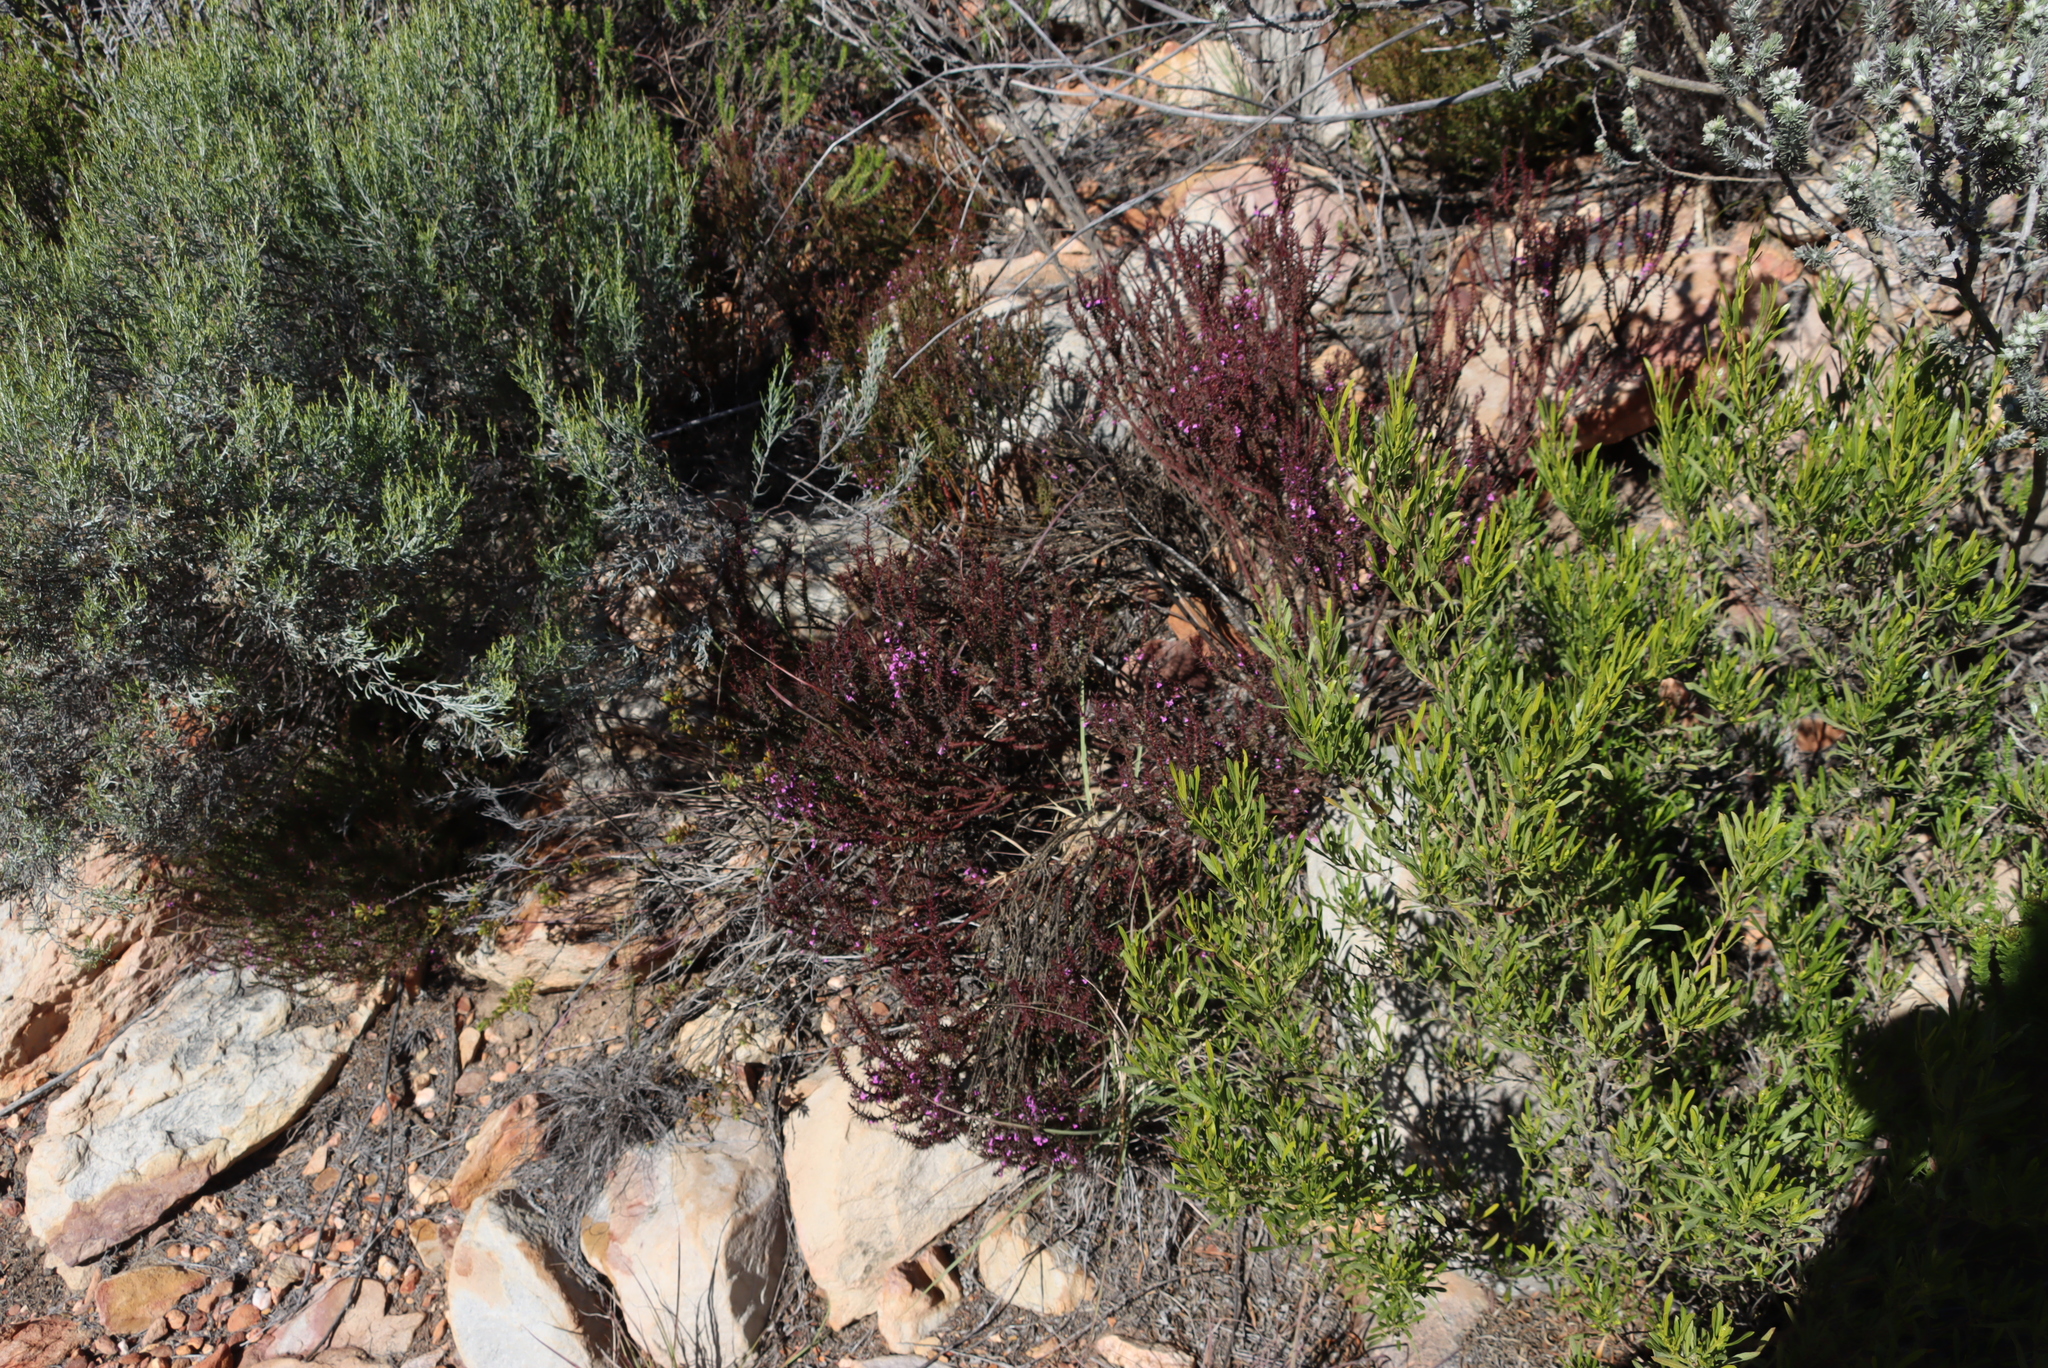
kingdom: Plantae
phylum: Tracheophyta
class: Magnoliopsida
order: Fabales
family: Polygalaceae
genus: Muraltia
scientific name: Muraltia juniperifolia
